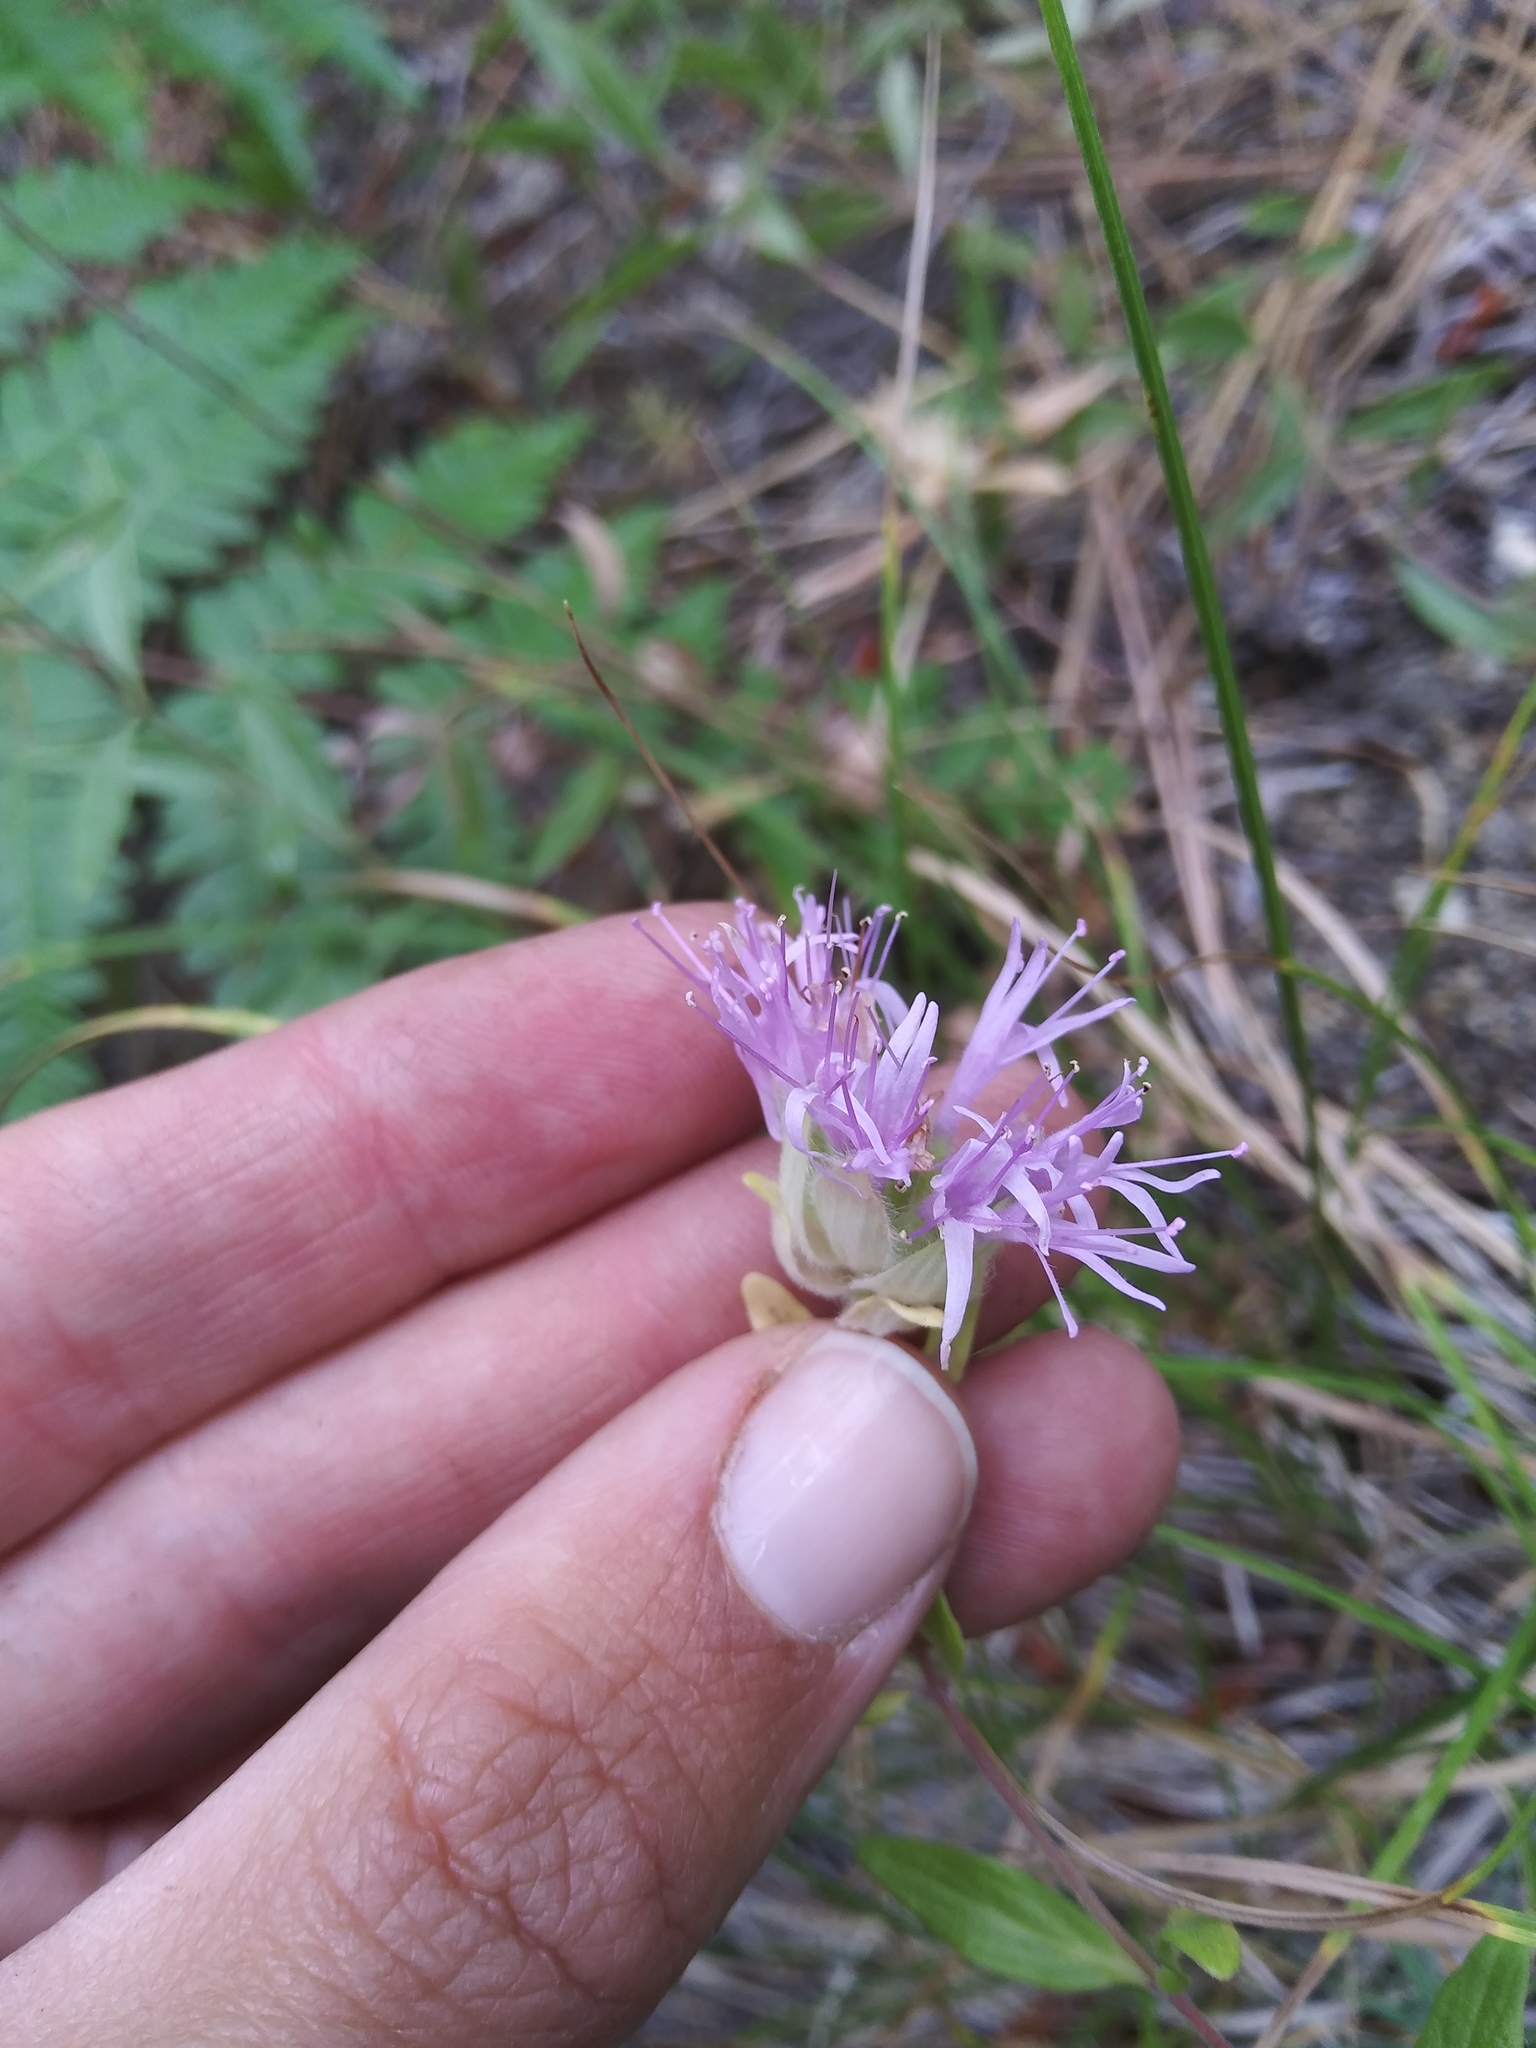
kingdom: Plantae
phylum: Tracheophyta
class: Magnoliopsida
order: Lamiales
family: Lamiaceae
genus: Monardella
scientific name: Monardella odoratissima
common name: Pacific monardella
